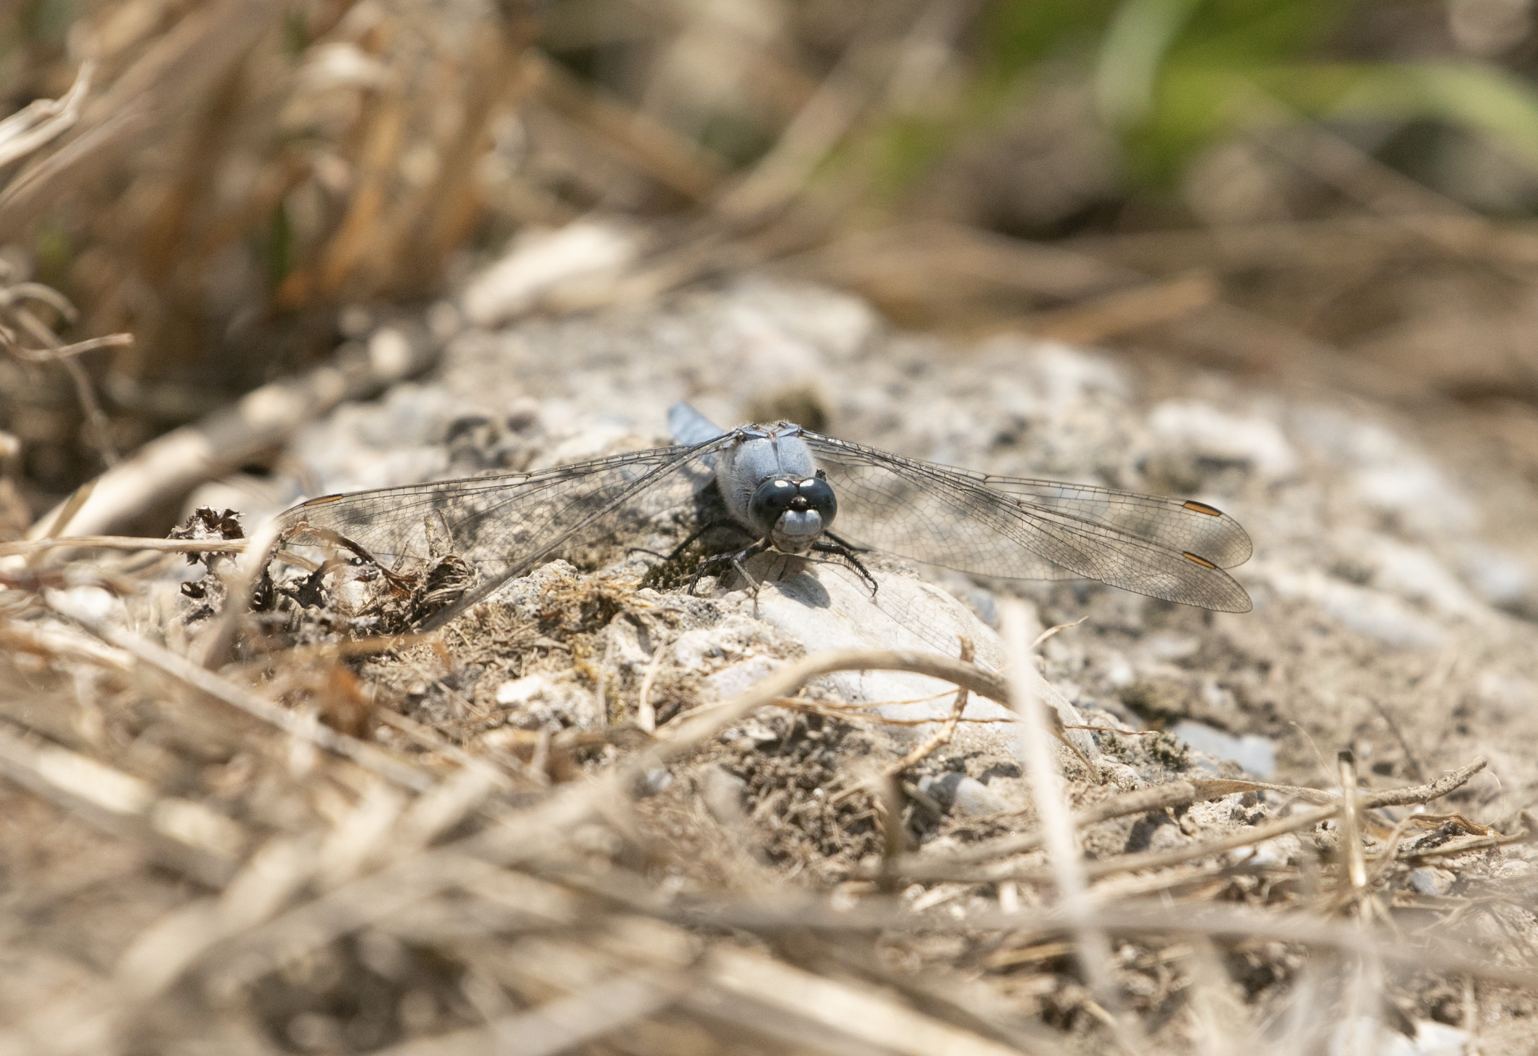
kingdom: Animalia
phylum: Arthropoda
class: Insecta
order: Odonata
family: Libellulidae
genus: Orthetrum
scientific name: Orthetrum brunneum
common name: Southern skimmer
